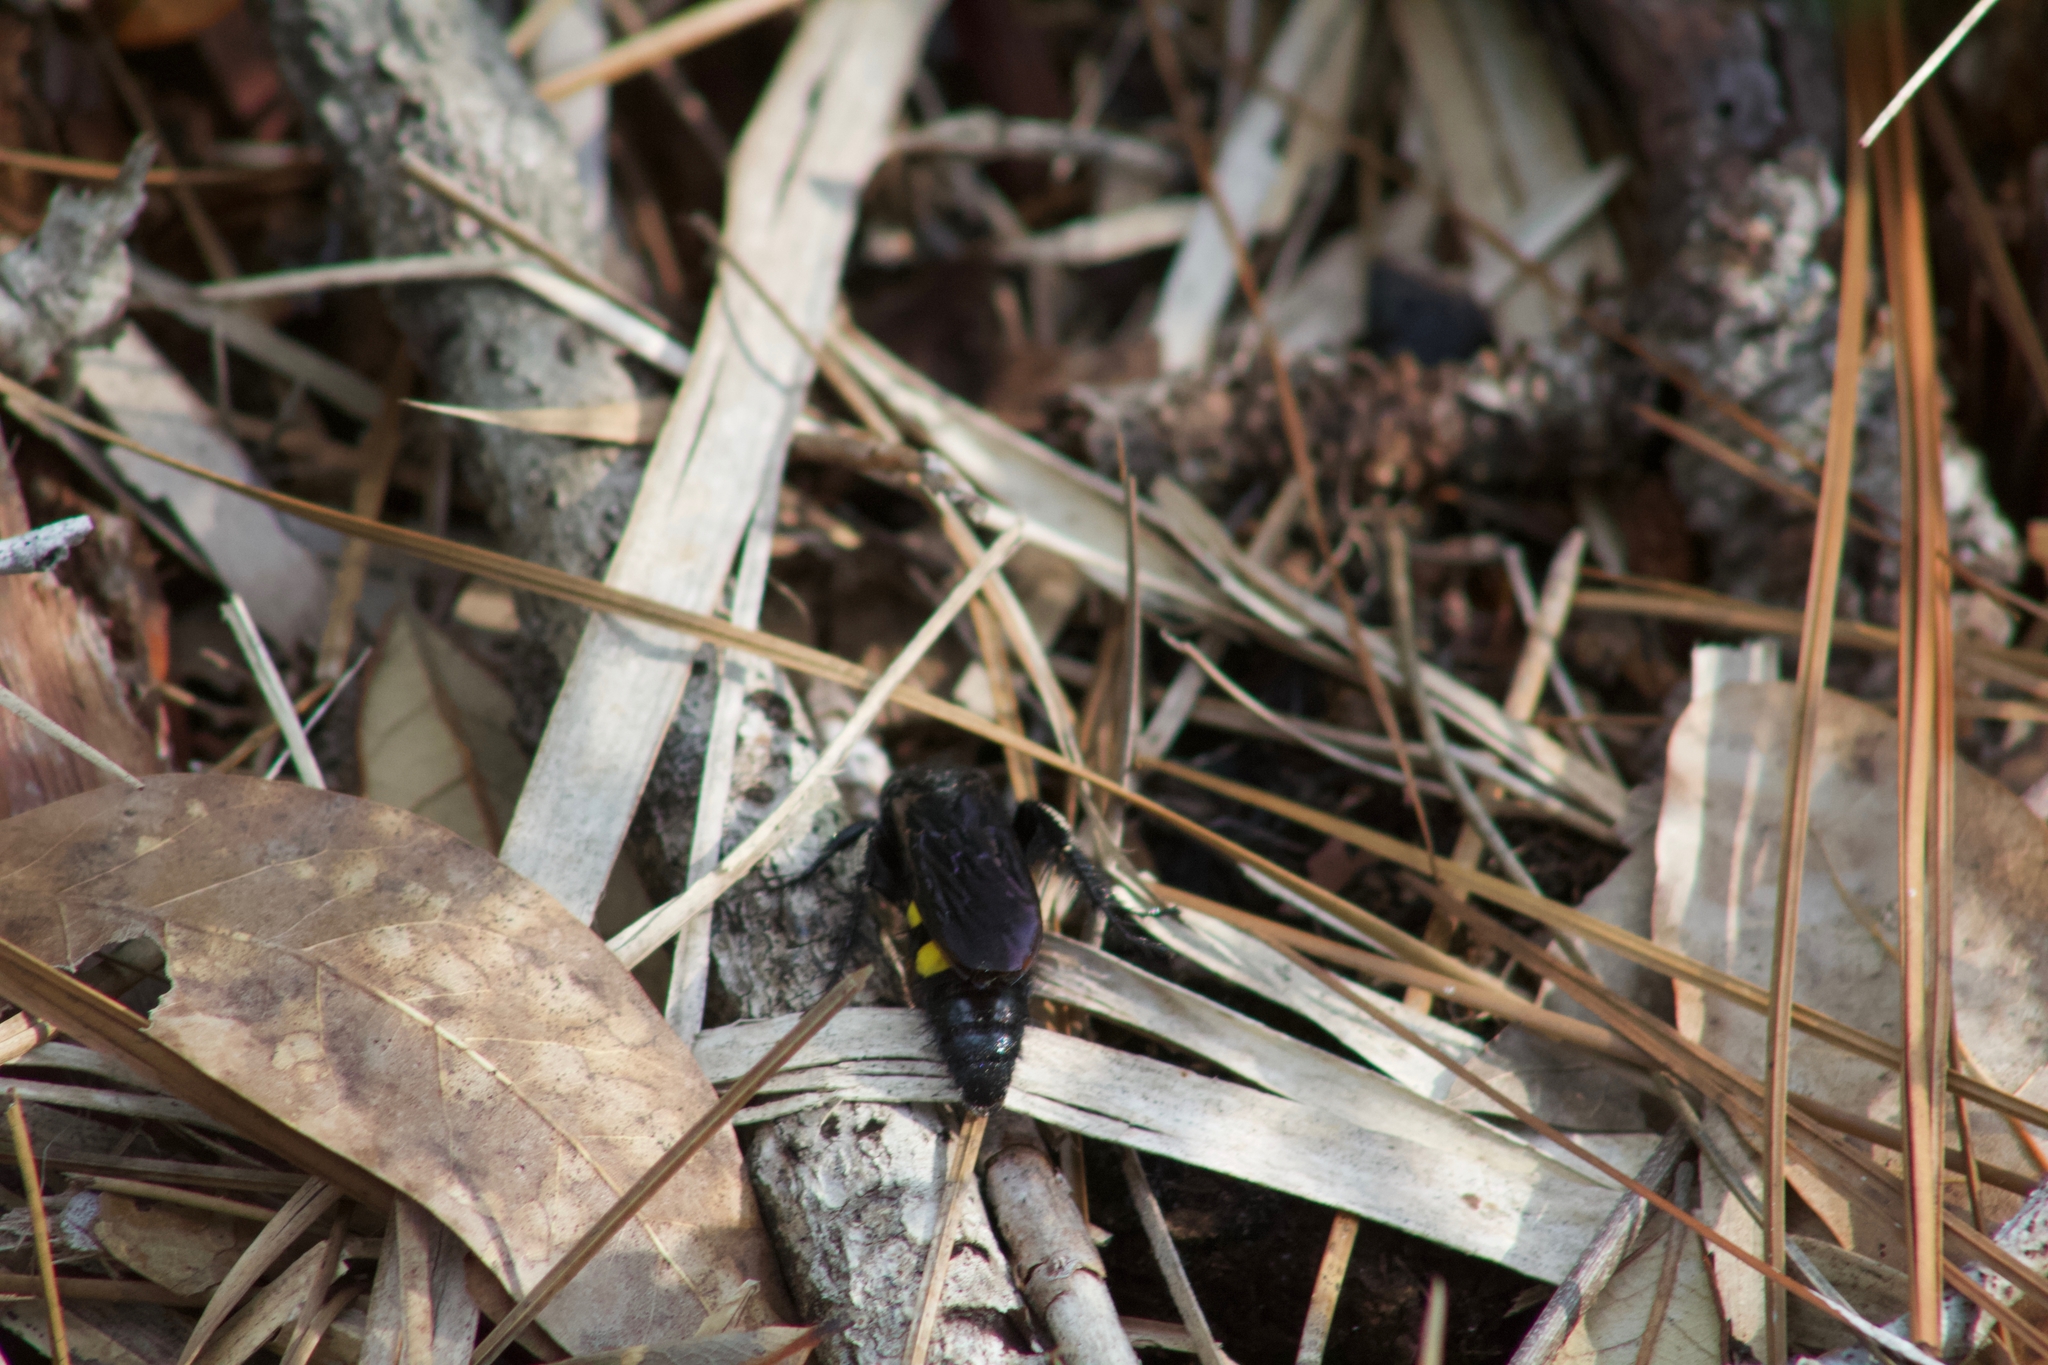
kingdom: Animalia
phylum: Arthropoda
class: Insecta
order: Hymenoptera
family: Scoliidae
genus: Pygodasis
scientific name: Pygodasis
